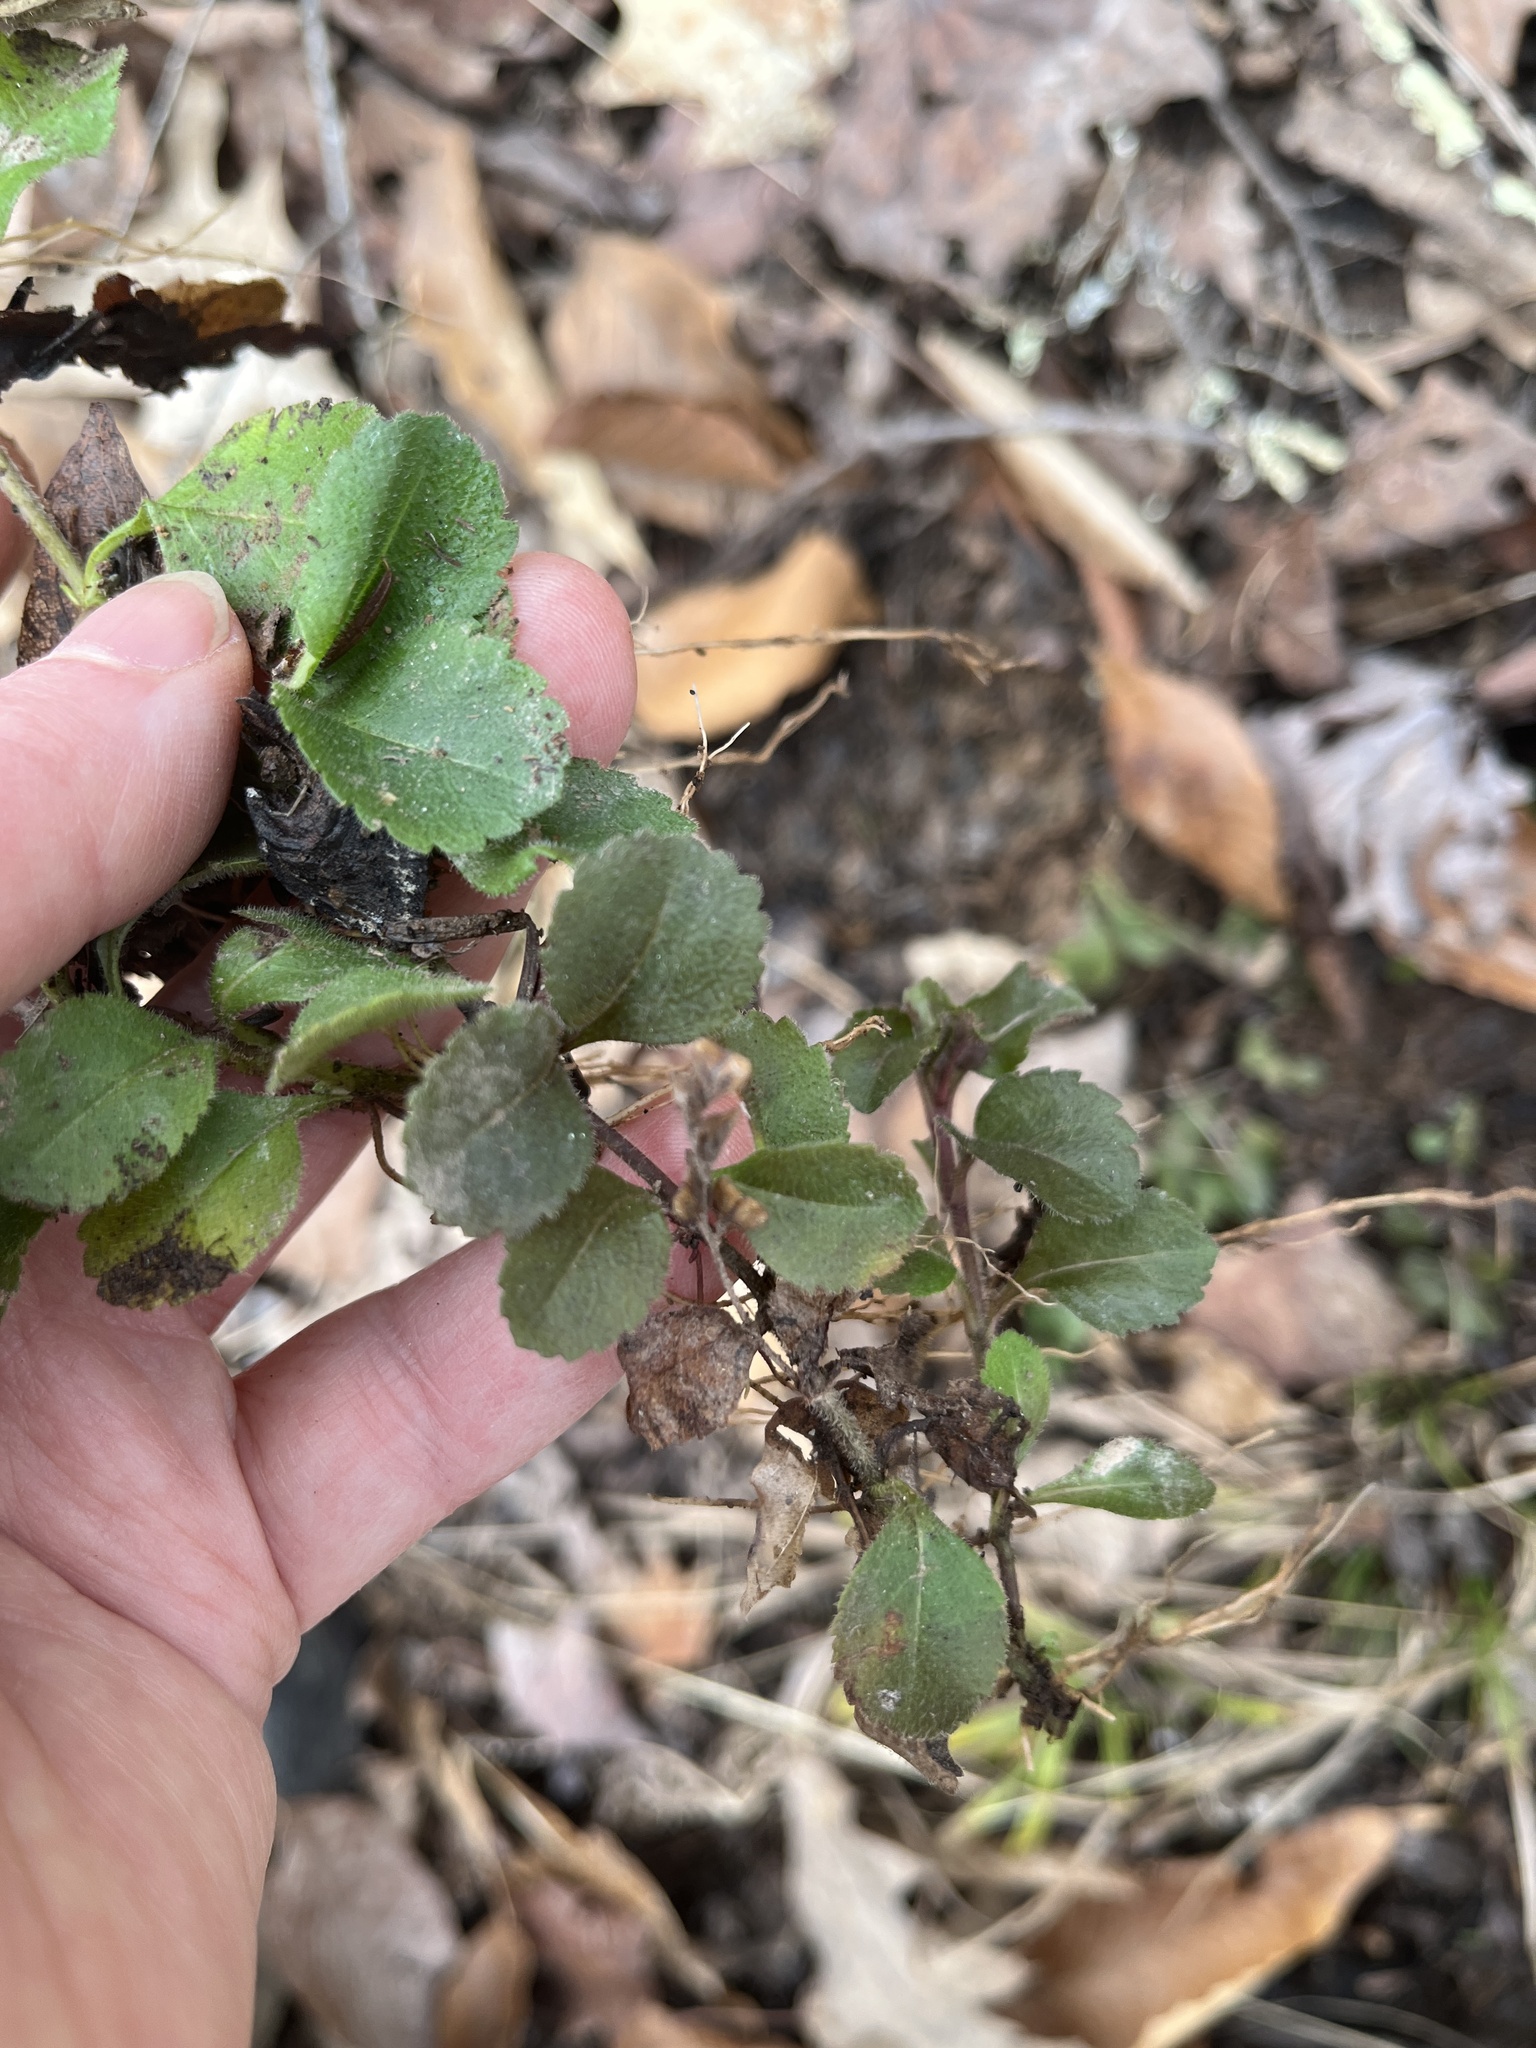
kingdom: Plantae
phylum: Tracheophyta
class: Magnoliopsida
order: Lamiales
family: Plantaginaceae
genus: Veronica
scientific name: Veronica officinalis
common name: Common speedwell
